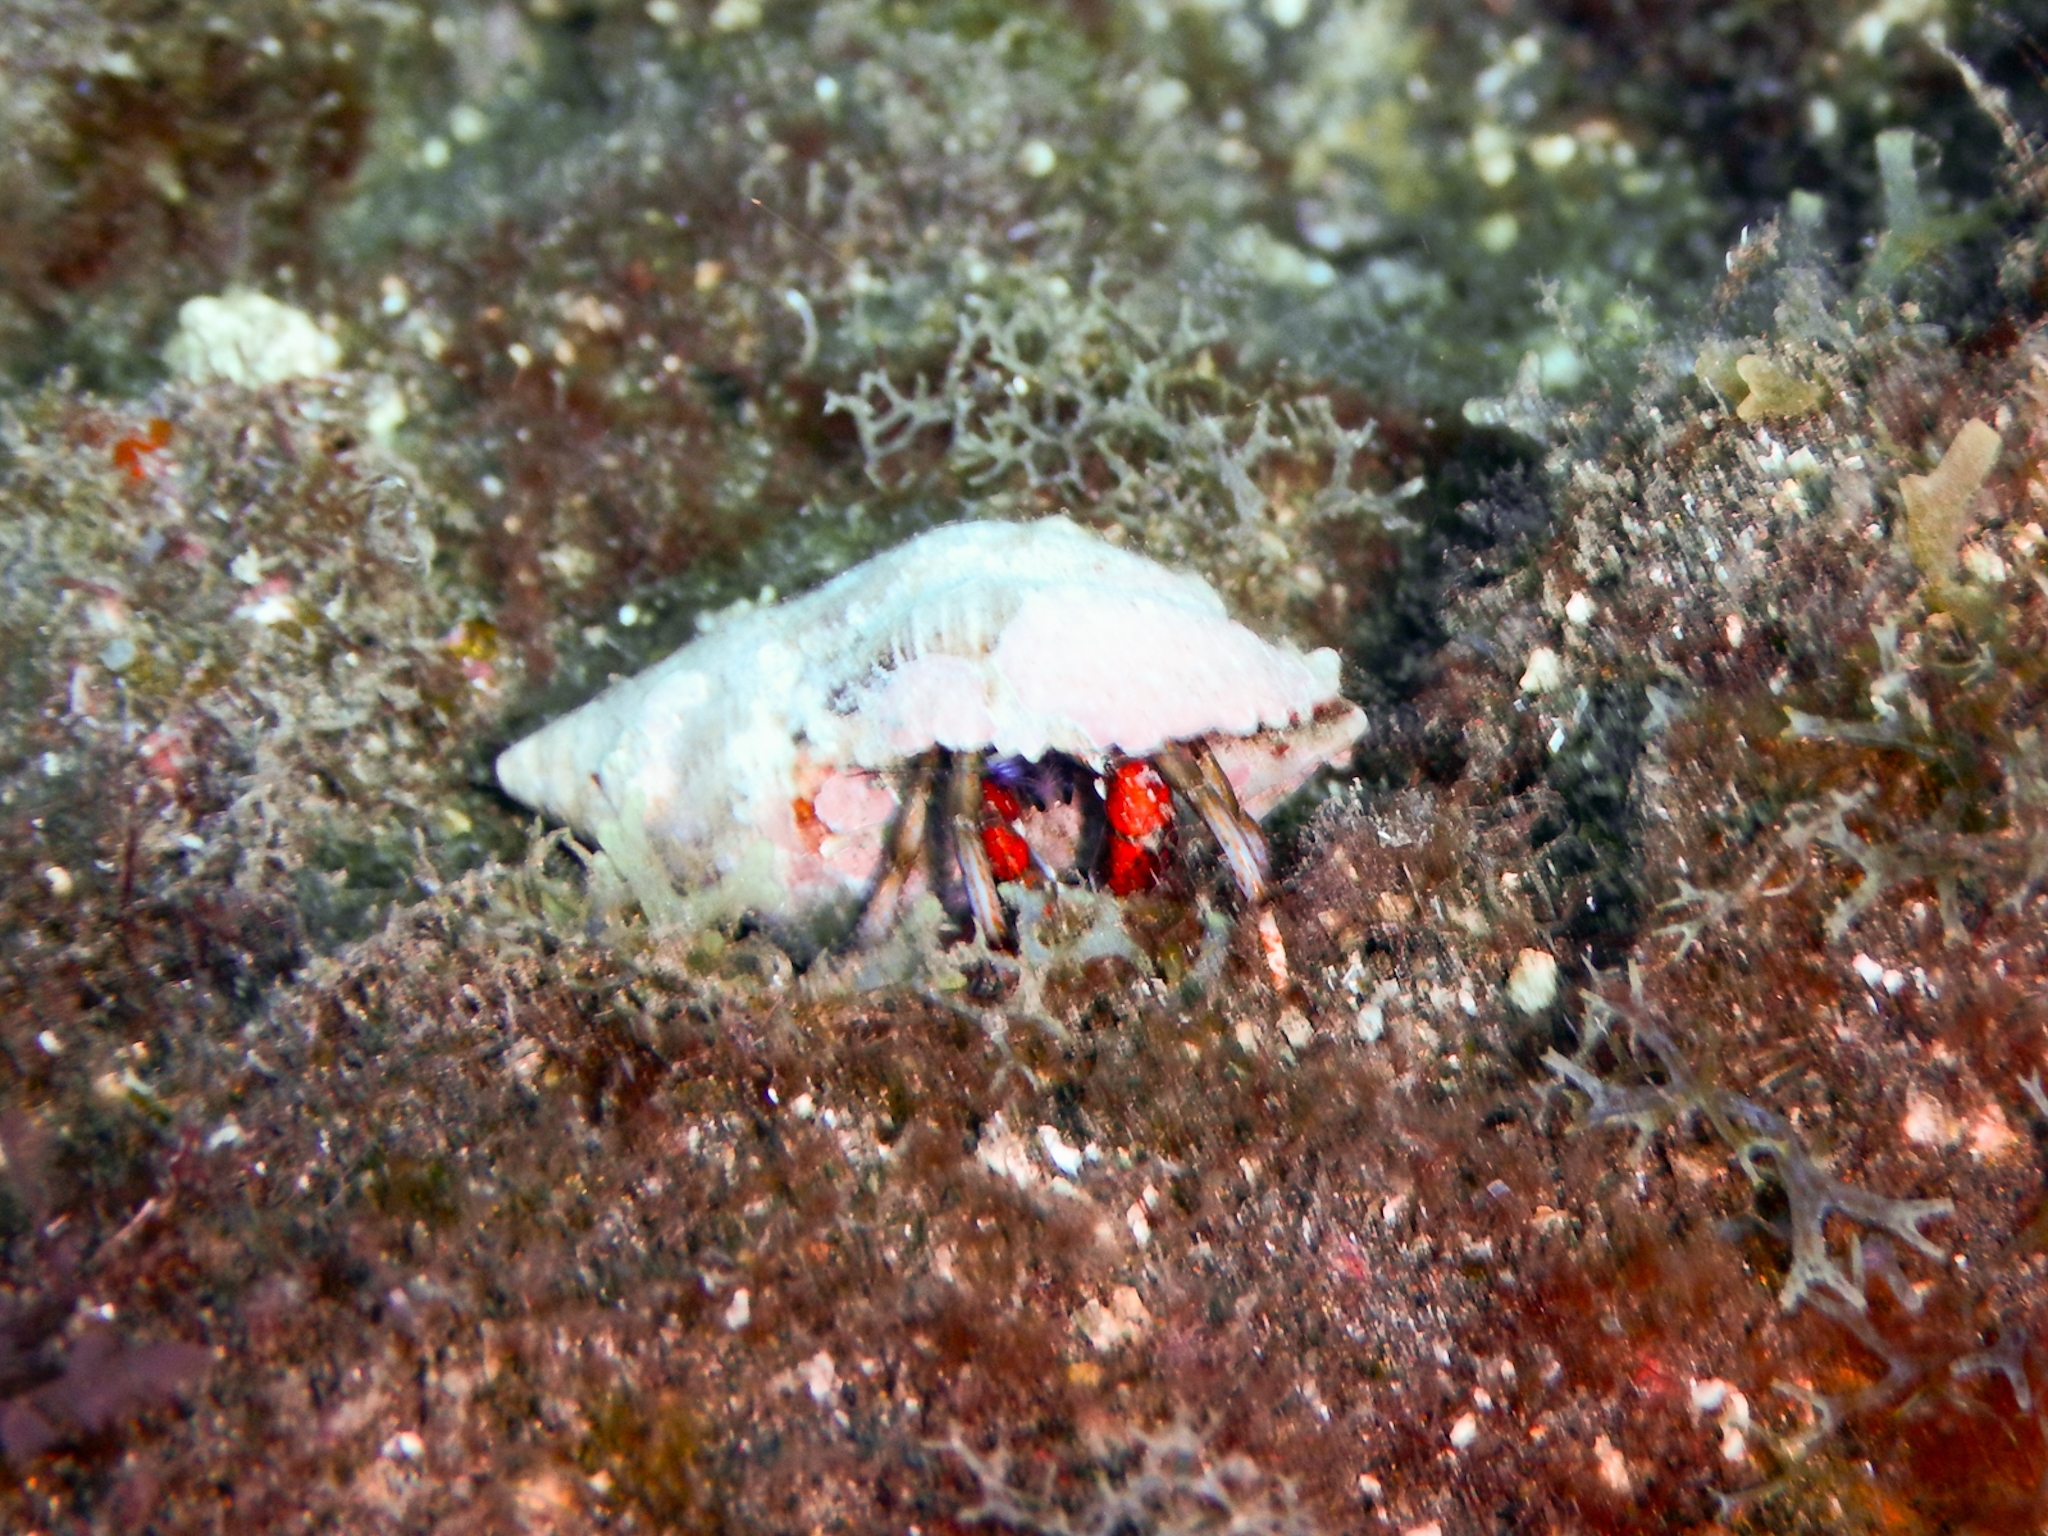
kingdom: Animalia
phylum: Arthropoda
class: Malacostraca
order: Decapoda
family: Diogenidae
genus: Calcinus
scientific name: Calcinus tubularis
